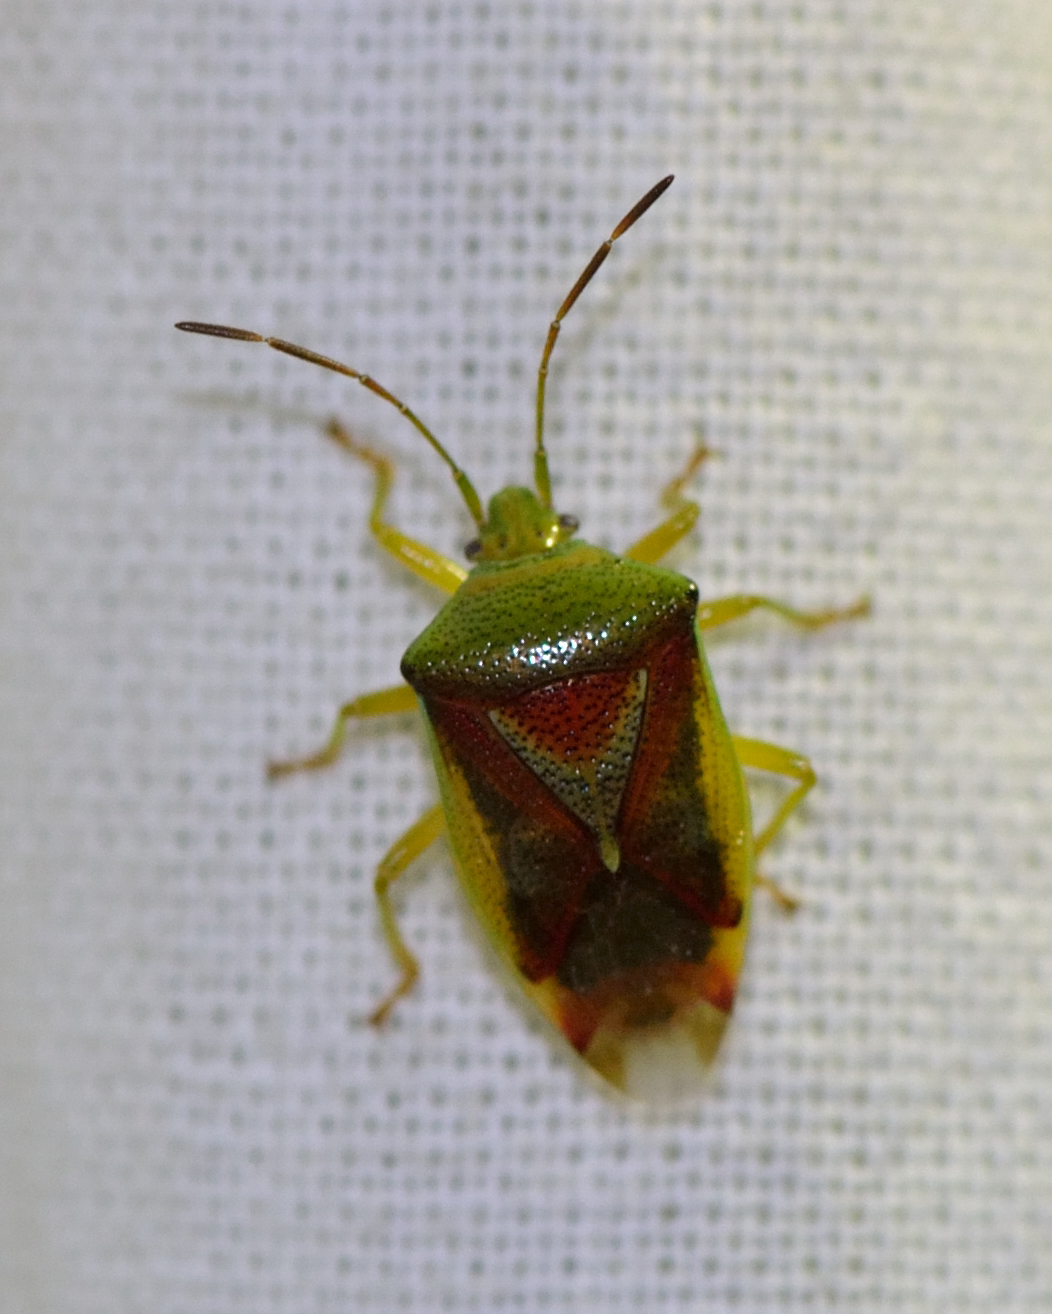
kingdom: Animalia
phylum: Arthropoda
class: Insecta
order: Hemiptera
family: Acanthosomatidae
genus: Elasmostethus
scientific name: Elasmostethus
